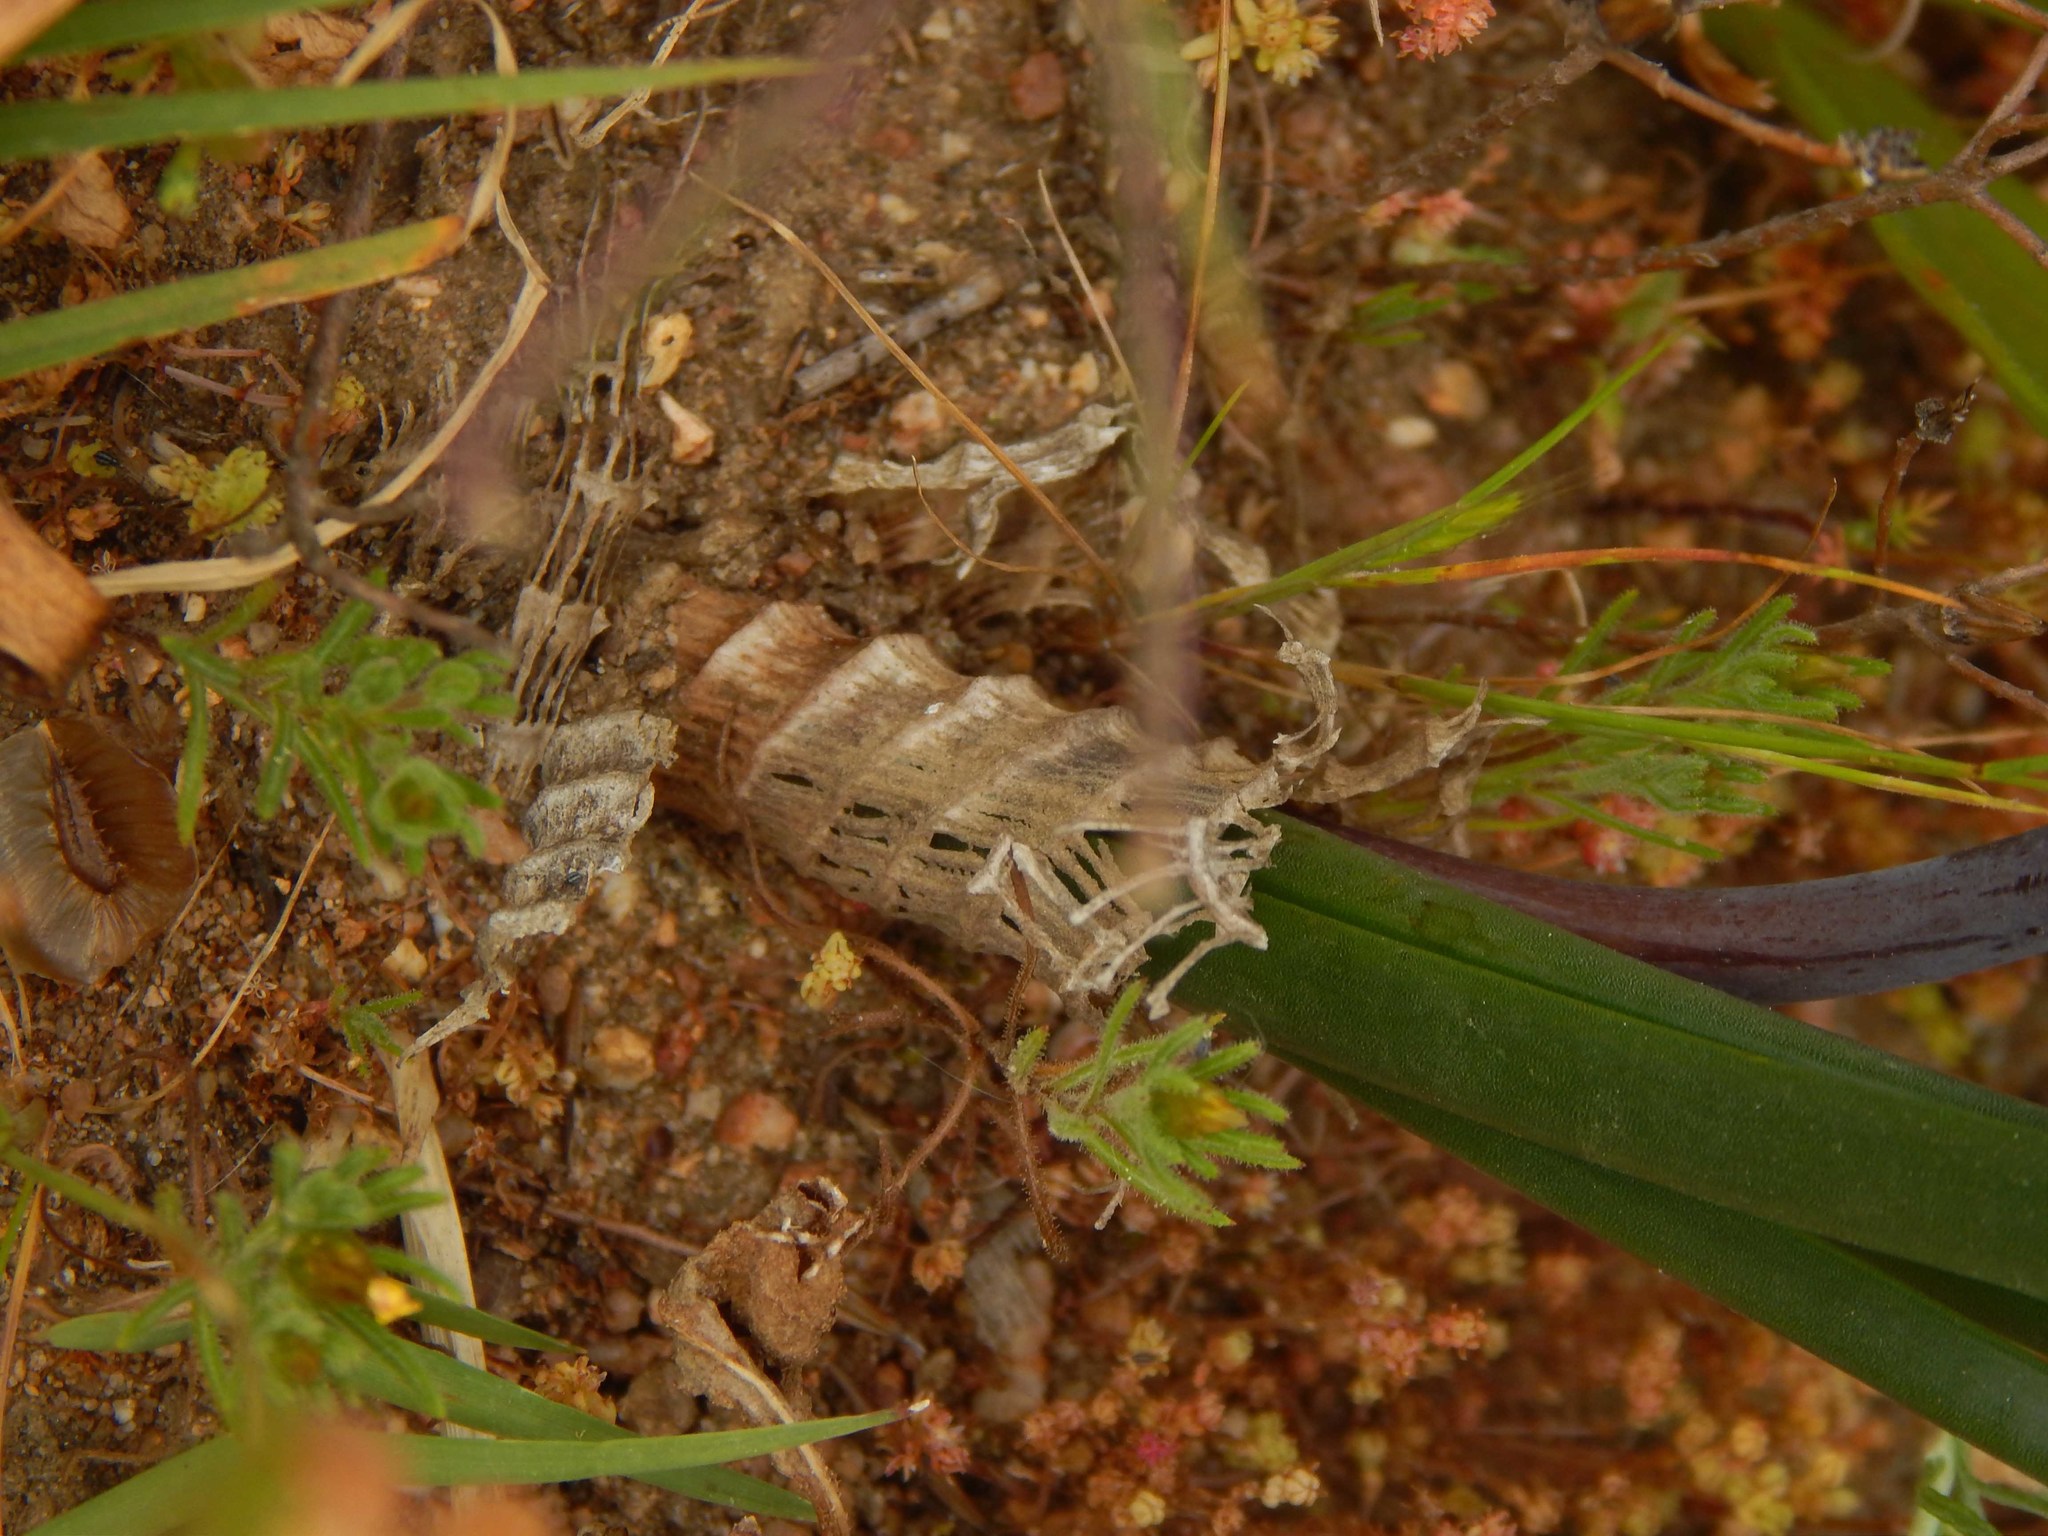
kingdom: Plantae
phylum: Tracheophyta
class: Liliopsida
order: Asparagales
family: Asparagaceae
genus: Drimia
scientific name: Drimia exuviata
